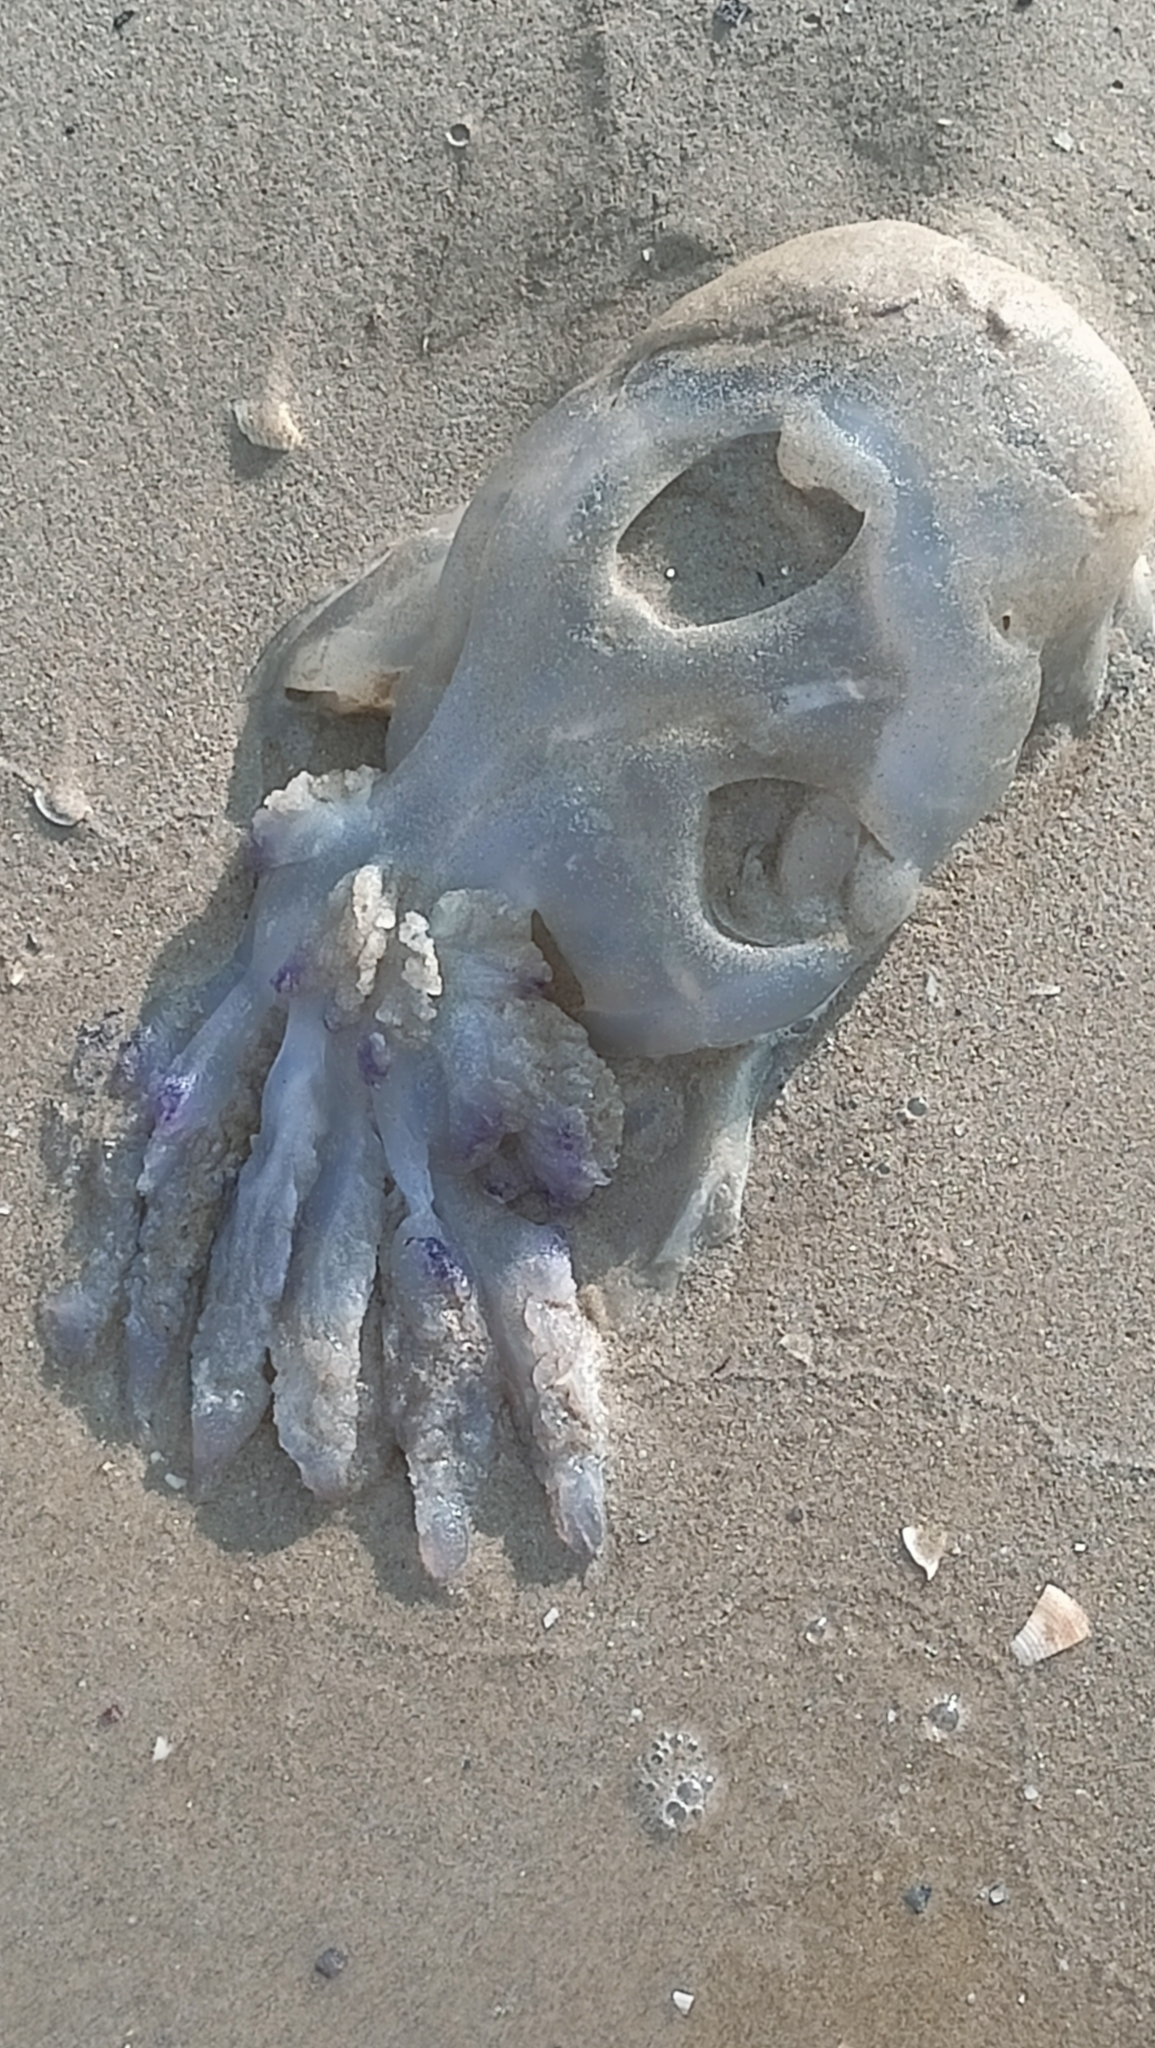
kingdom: Animalia
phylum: Cnidaria
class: Scyphozoa
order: Rhizostomeae
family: Rhizostomatidae
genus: Rhizostoma
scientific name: Rhizostoma pulmo
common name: Barrel jellyfish
